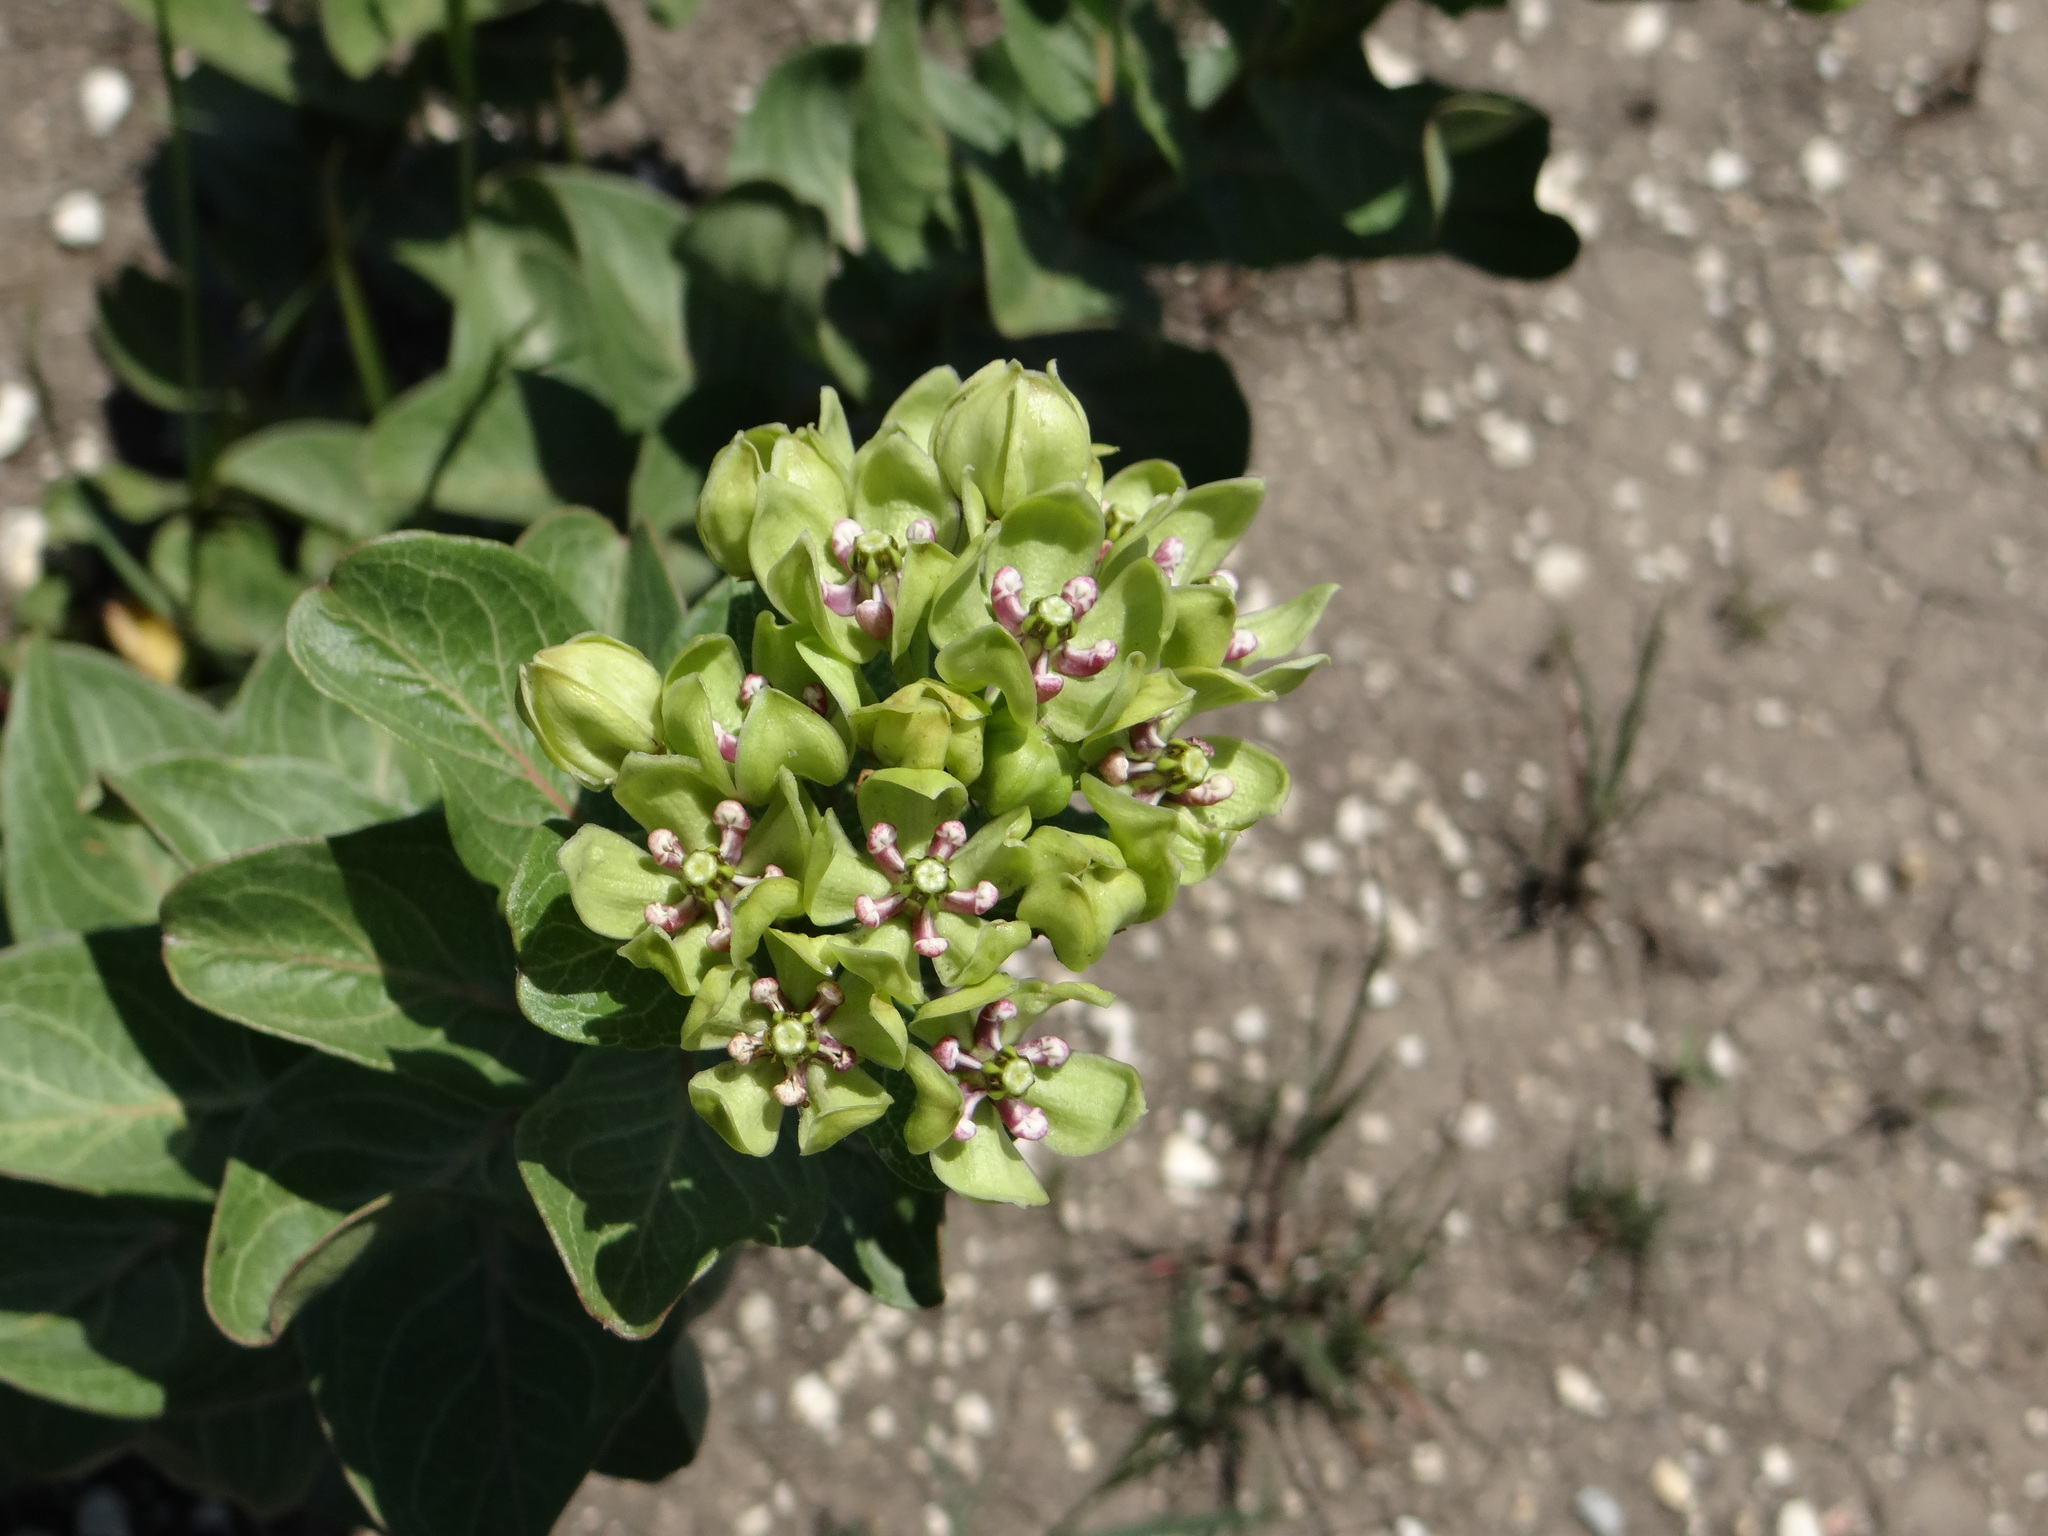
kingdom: Plantae
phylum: Tracheophyta
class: Magnoliopsida
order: Gentianales
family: Apocynaceae
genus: Asclepias
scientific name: Asclepias viridis
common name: Antelope-horns
